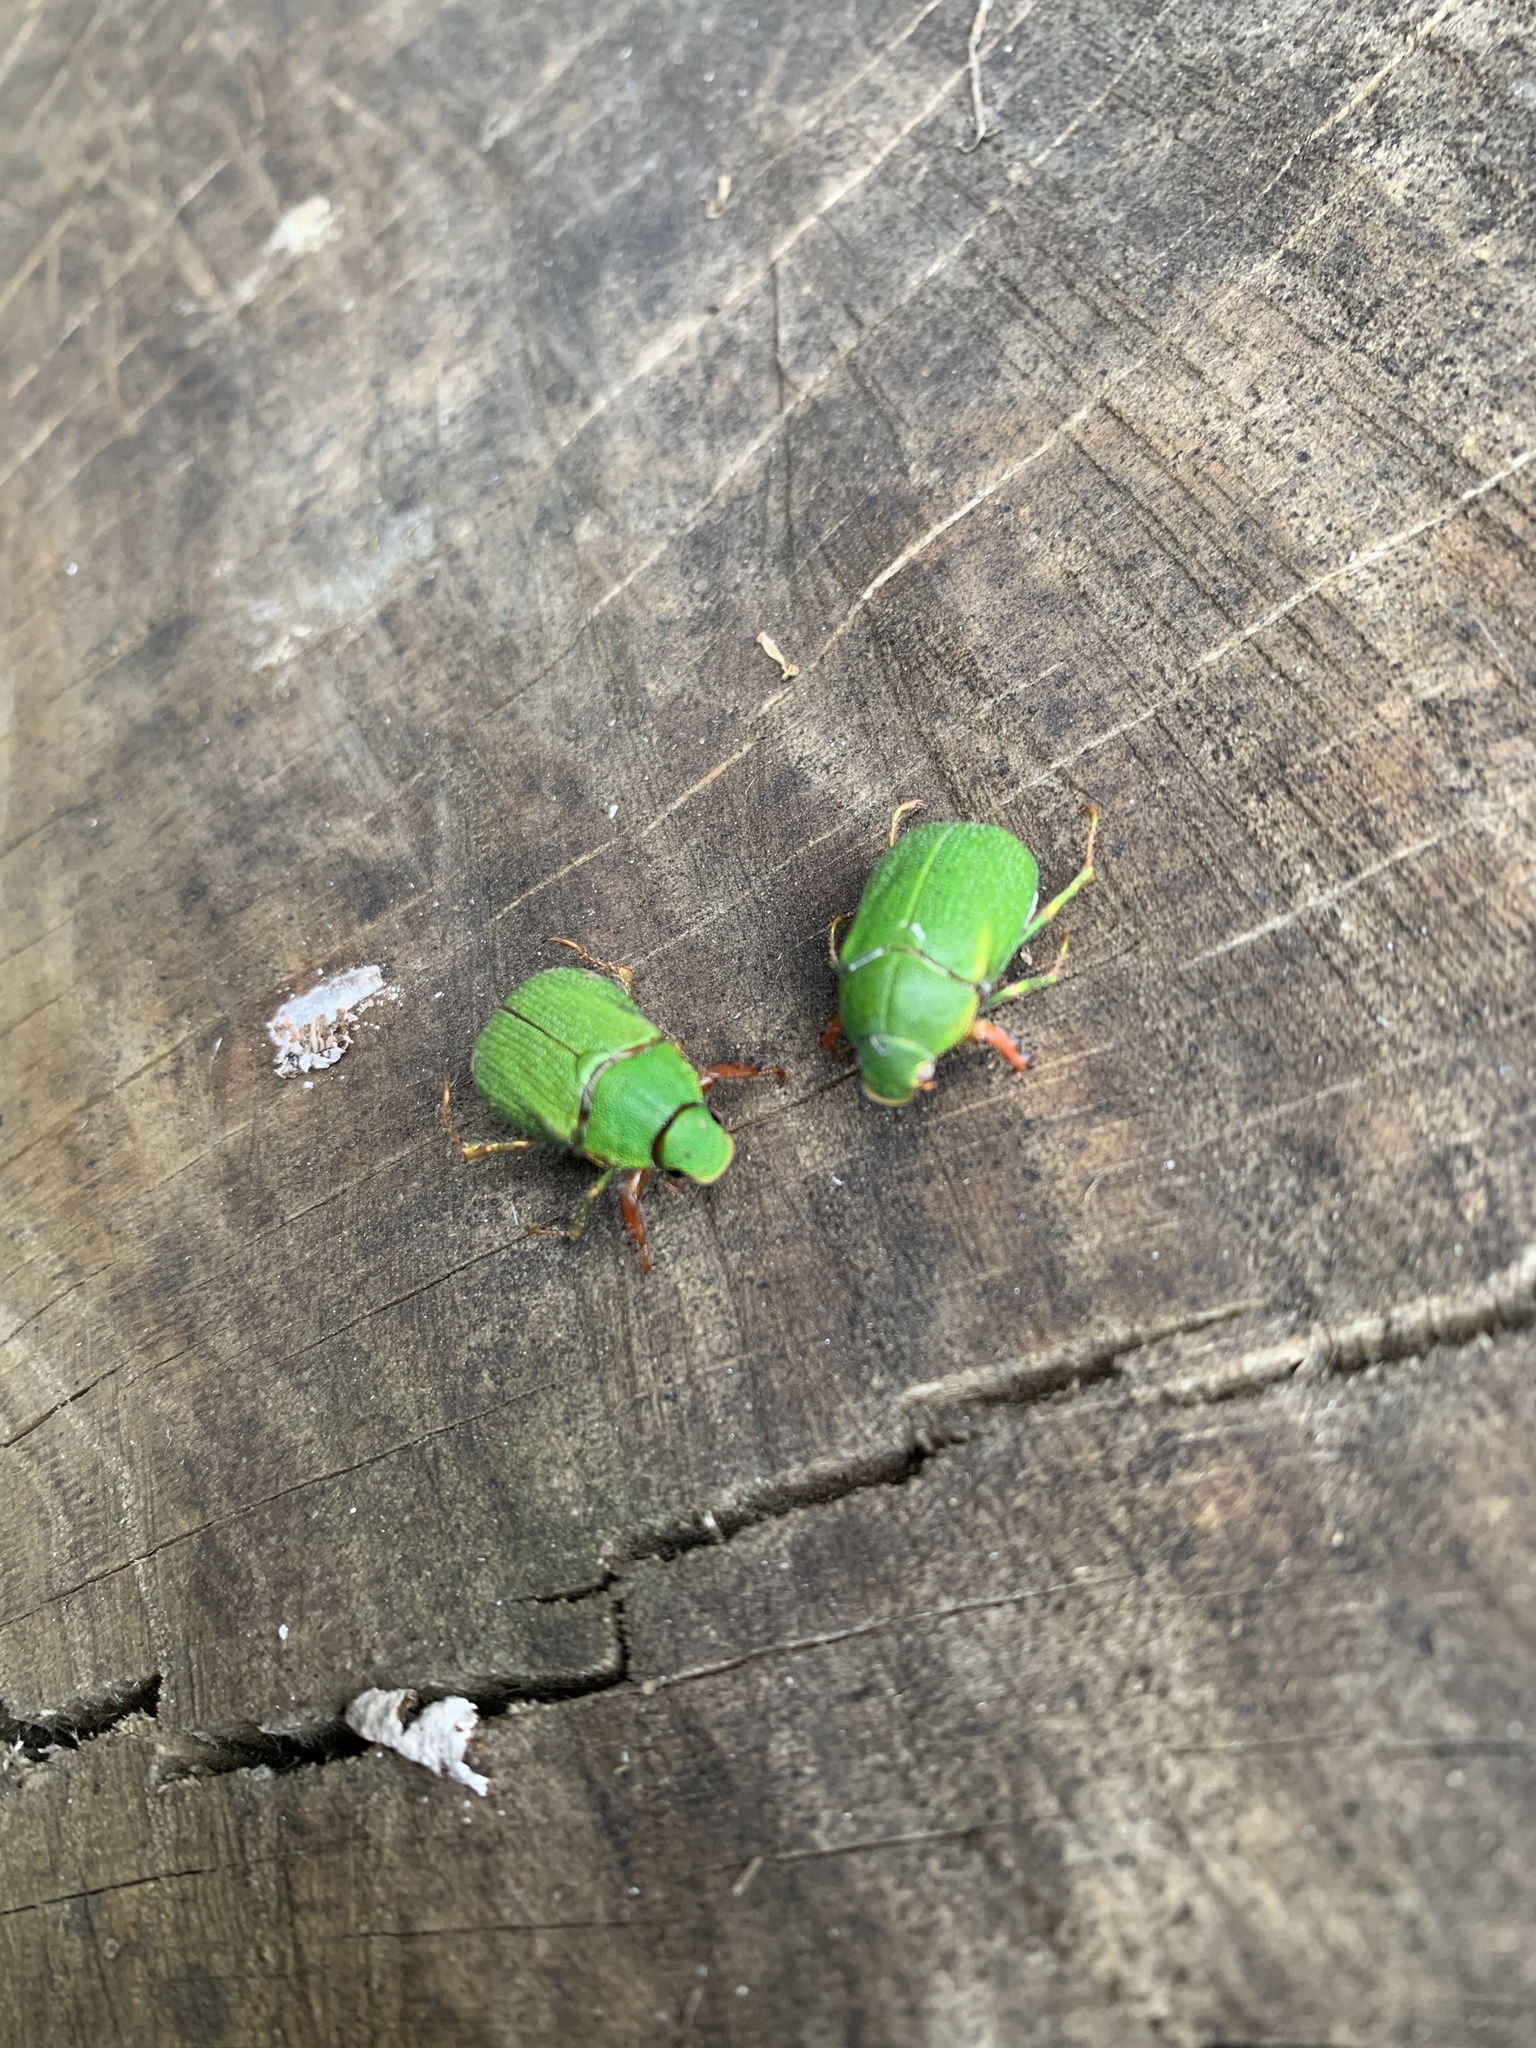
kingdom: Animalia
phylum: Arthropoda
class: Insecta
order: Coleoptera
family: Scarabaeidae
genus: Hylamorpha
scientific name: Hylamorpha elegans
